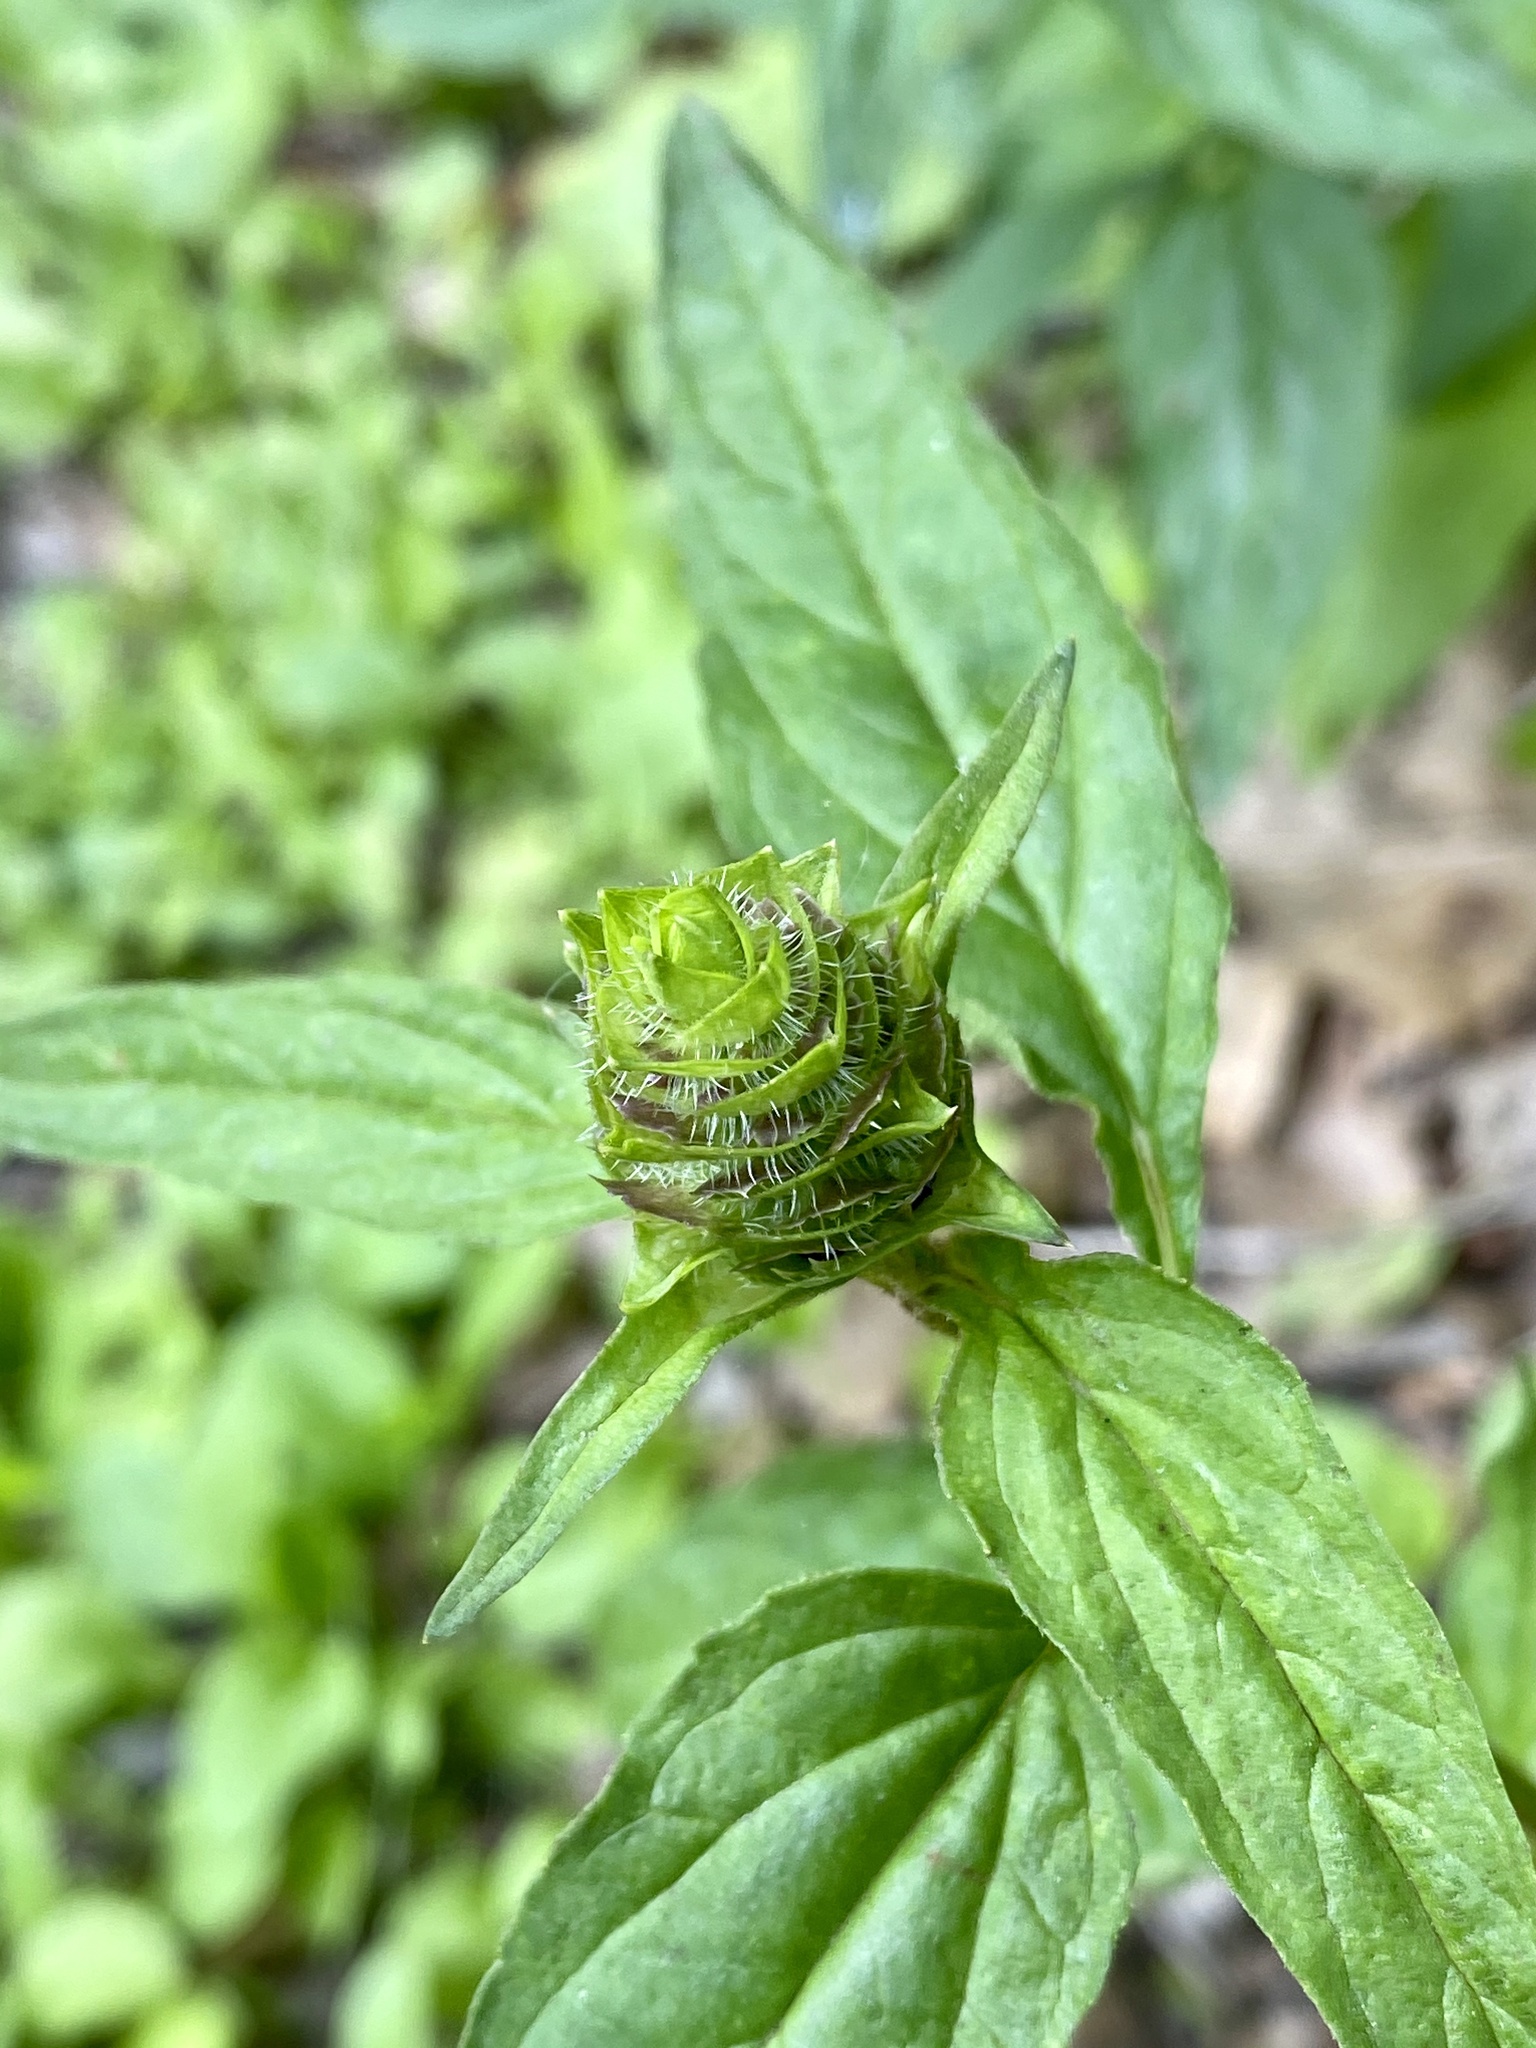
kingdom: Plantae
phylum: Tracheophyta
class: Magnoliopsida
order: Lamiales
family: Lamiaceae
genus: Prunella
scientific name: Prunella vulgaris
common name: Heal-all
